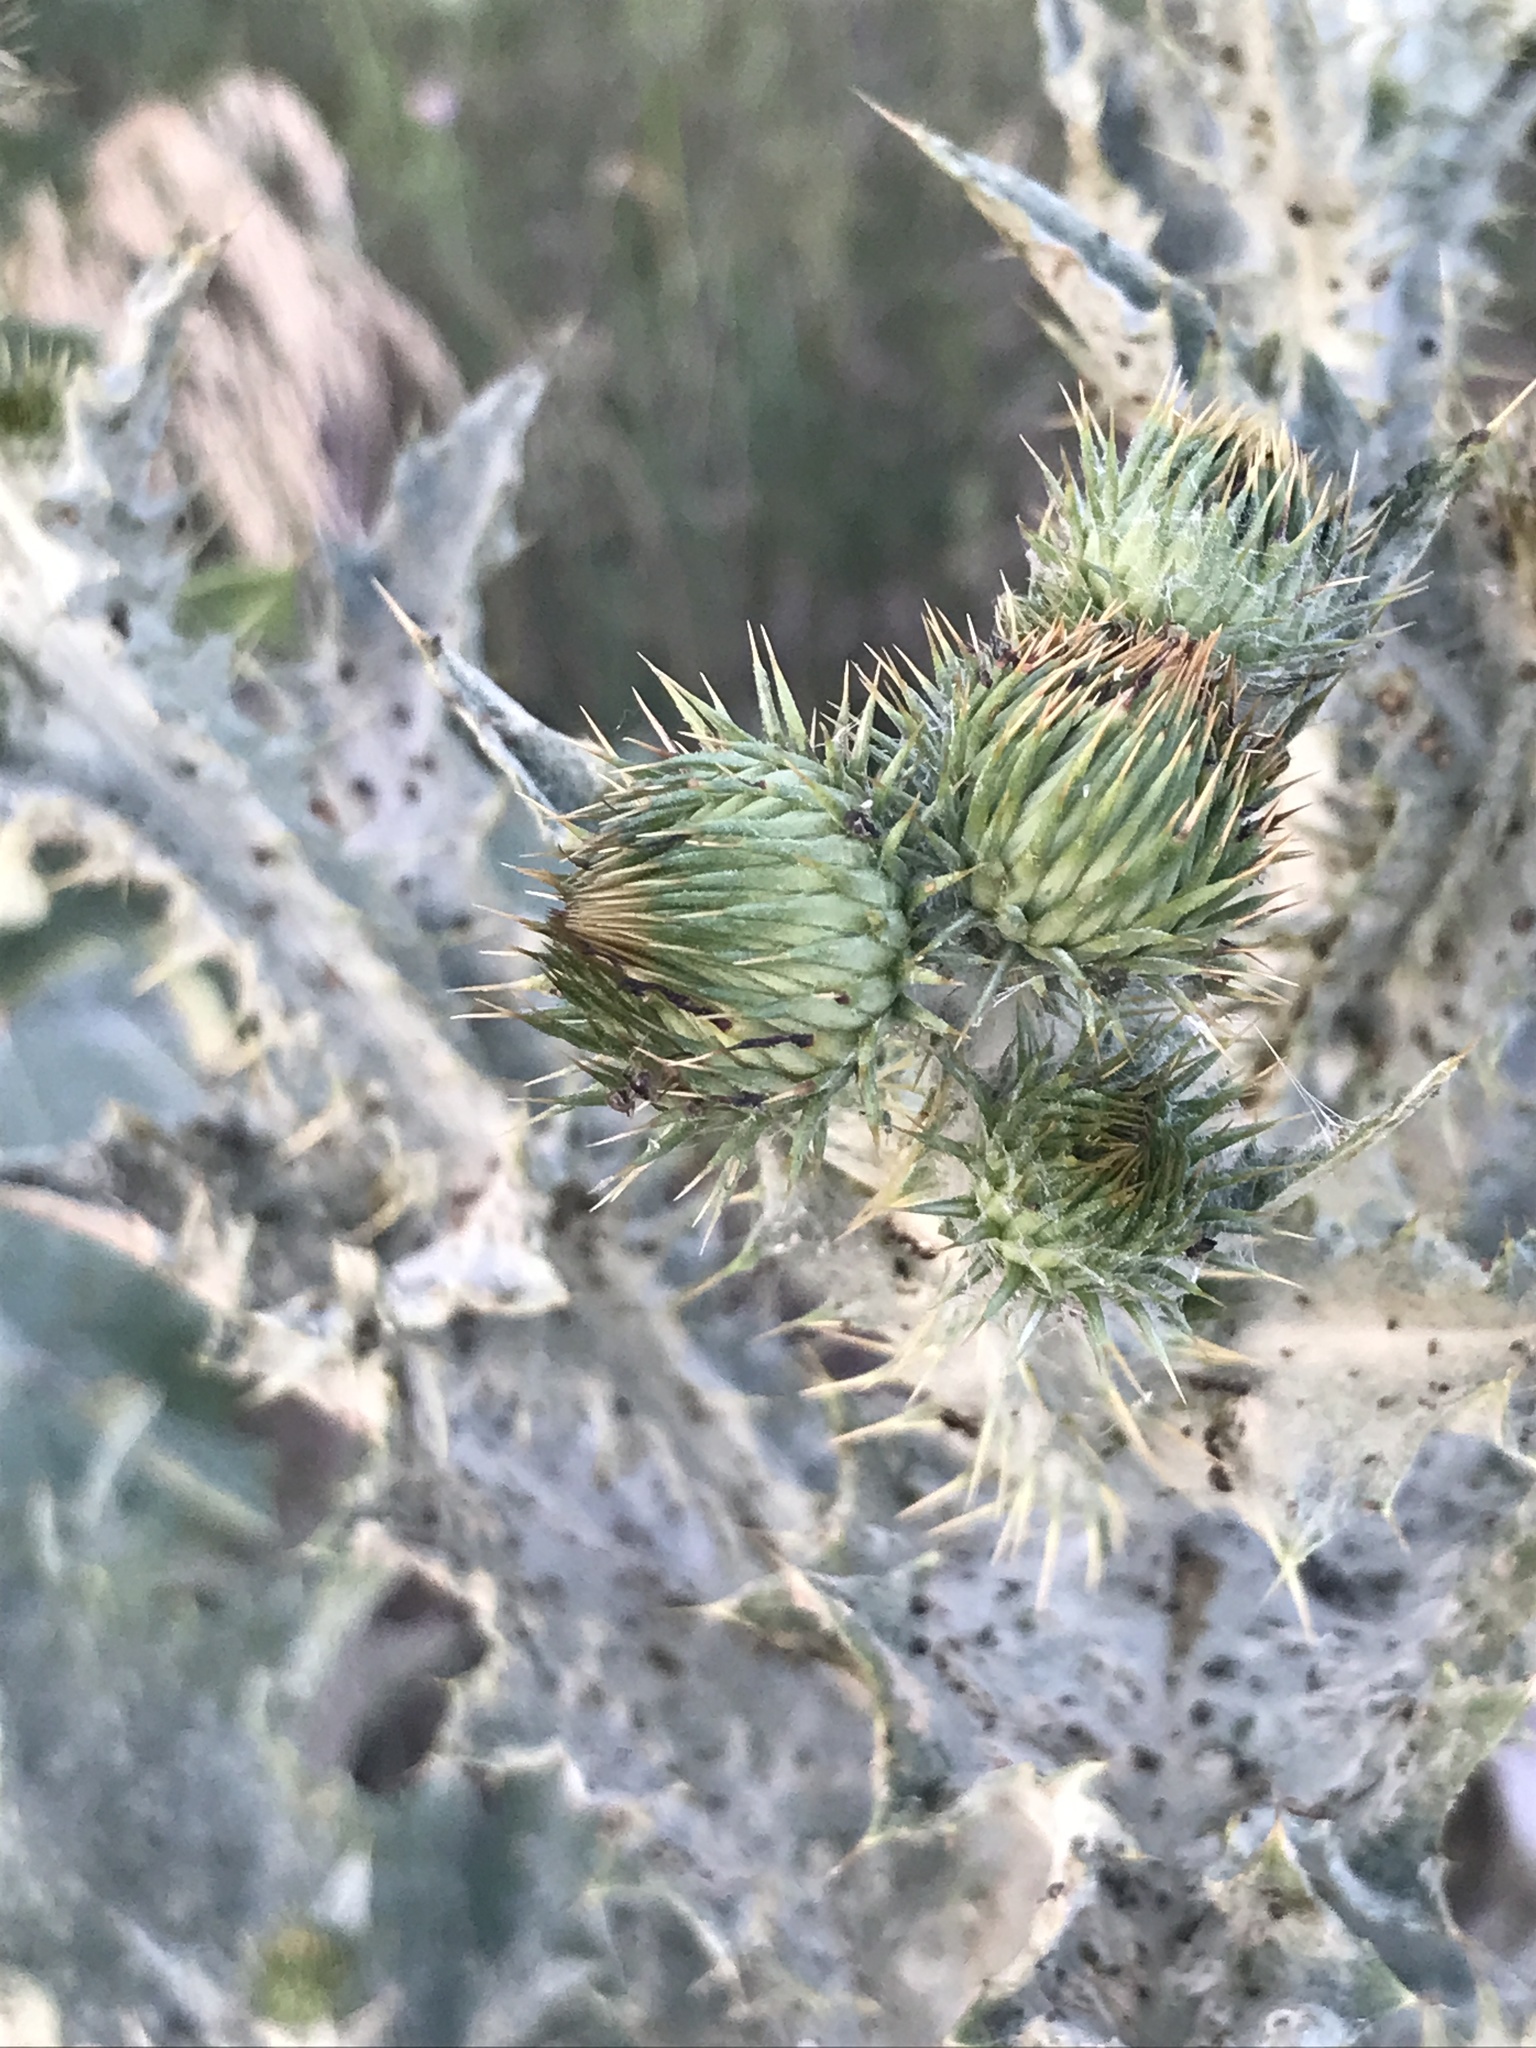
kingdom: Plantae
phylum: Tracheophyta
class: Magnoliopsida
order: Asterales
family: Asteraceae
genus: Onopordum
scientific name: Onopordum acanthium
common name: Scotch thistle
